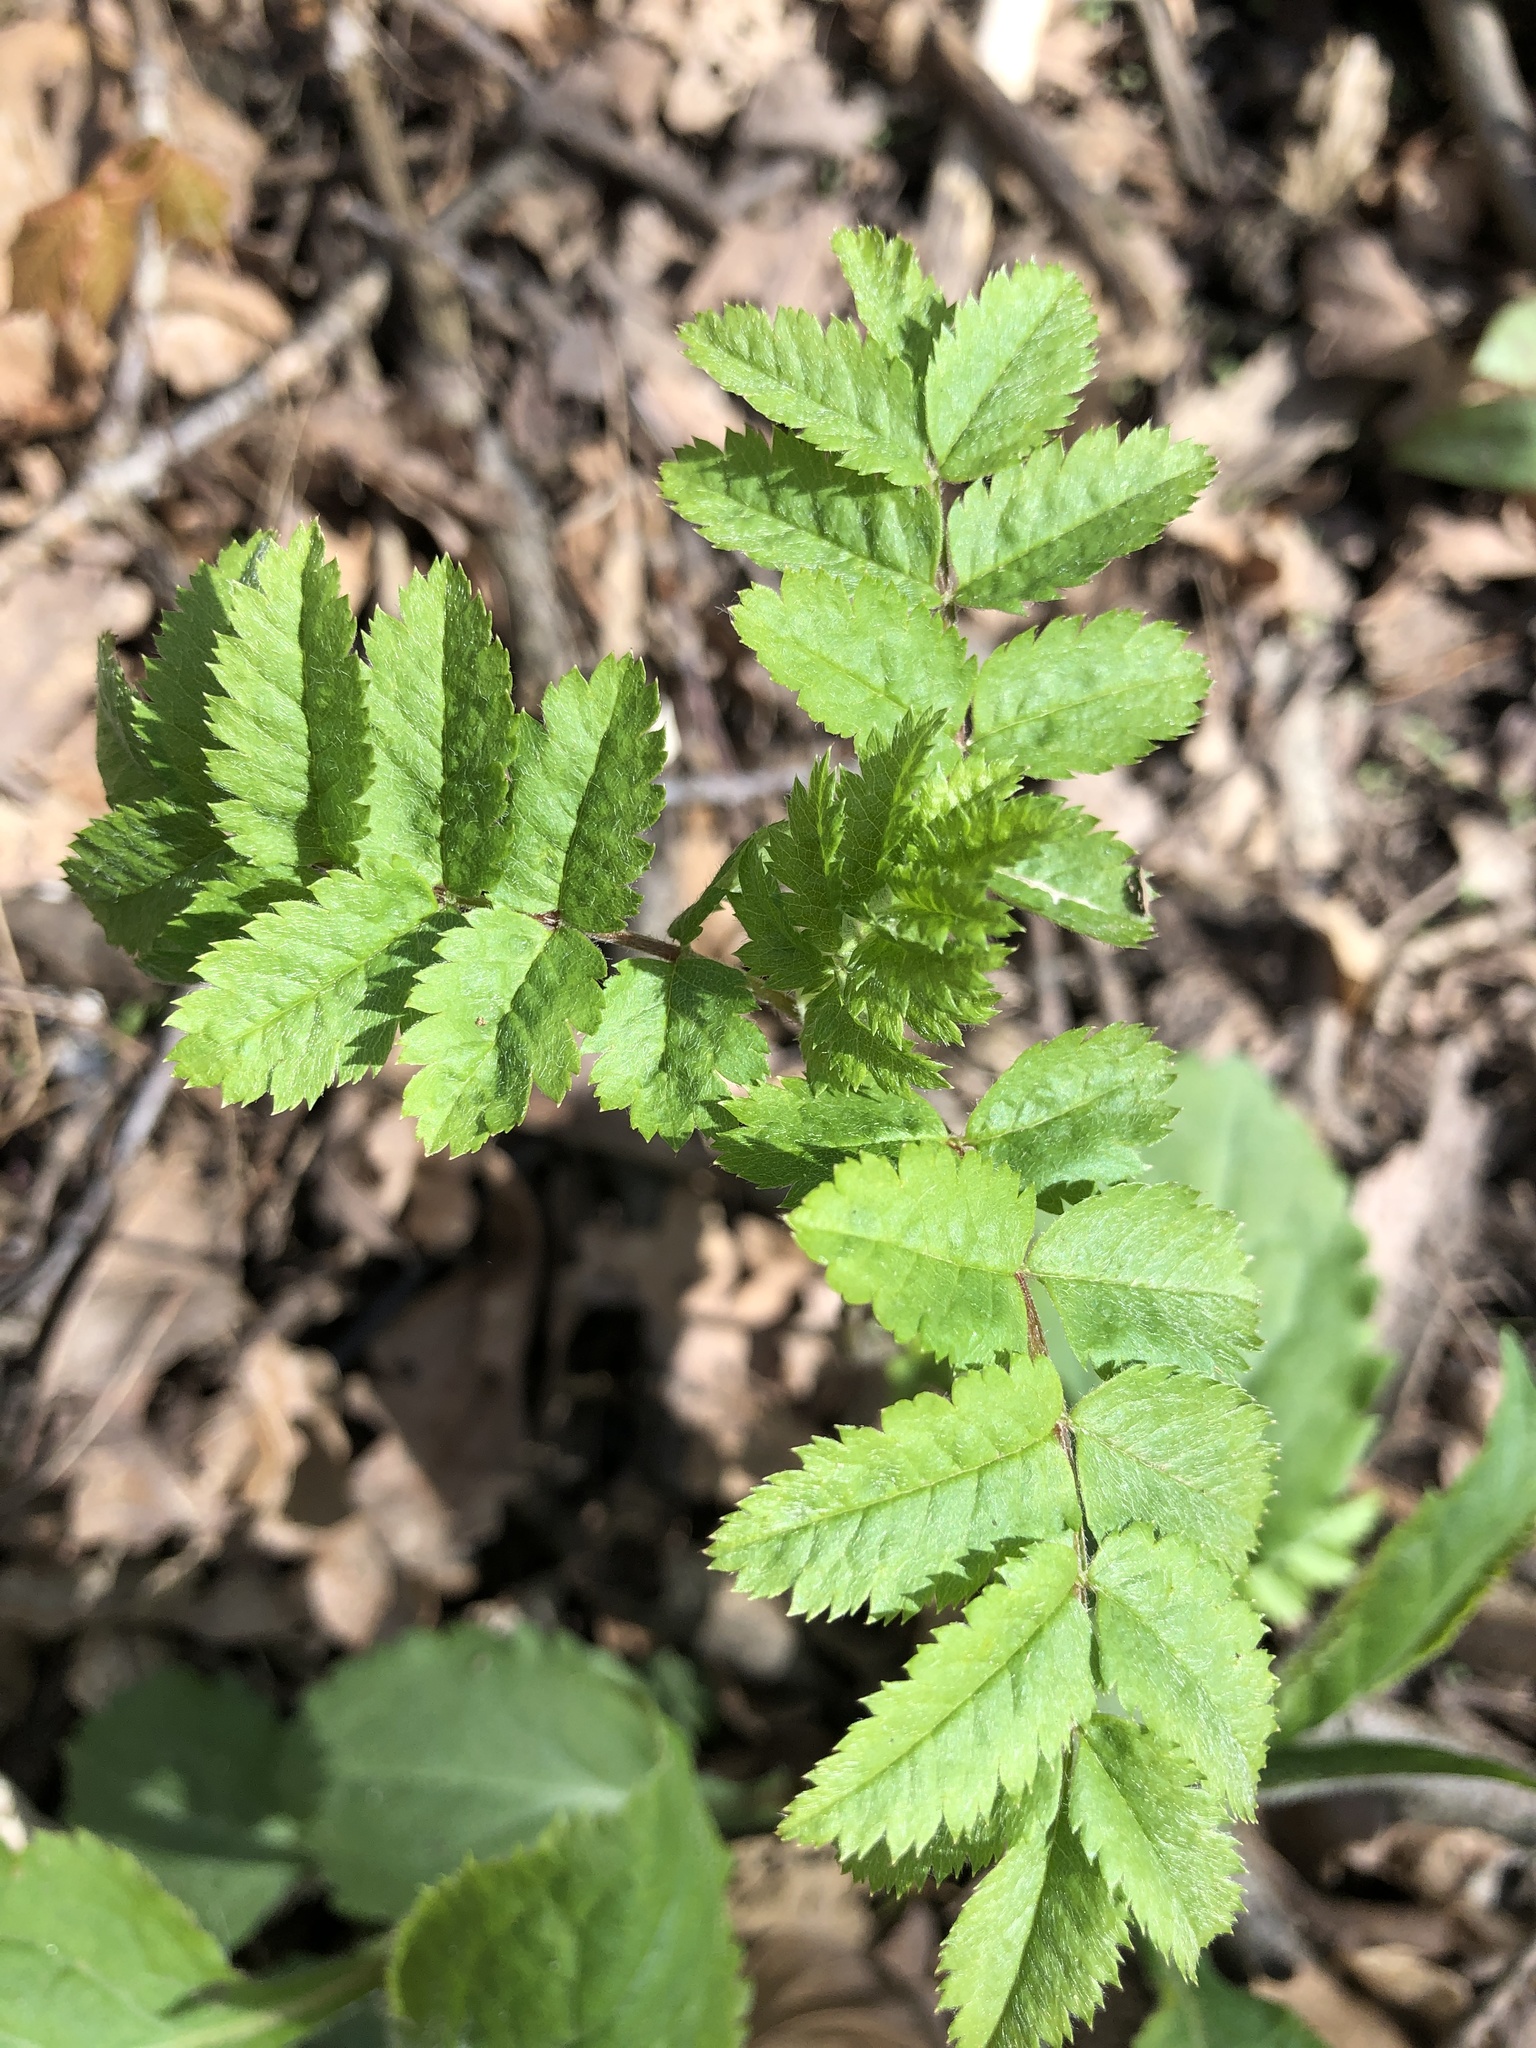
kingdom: Plantae
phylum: Tracheophyta
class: Magnoliopsida
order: Rosales
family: Rosaceae
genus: Sorbus
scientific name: Sorbus aucuparia
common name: Rowan
